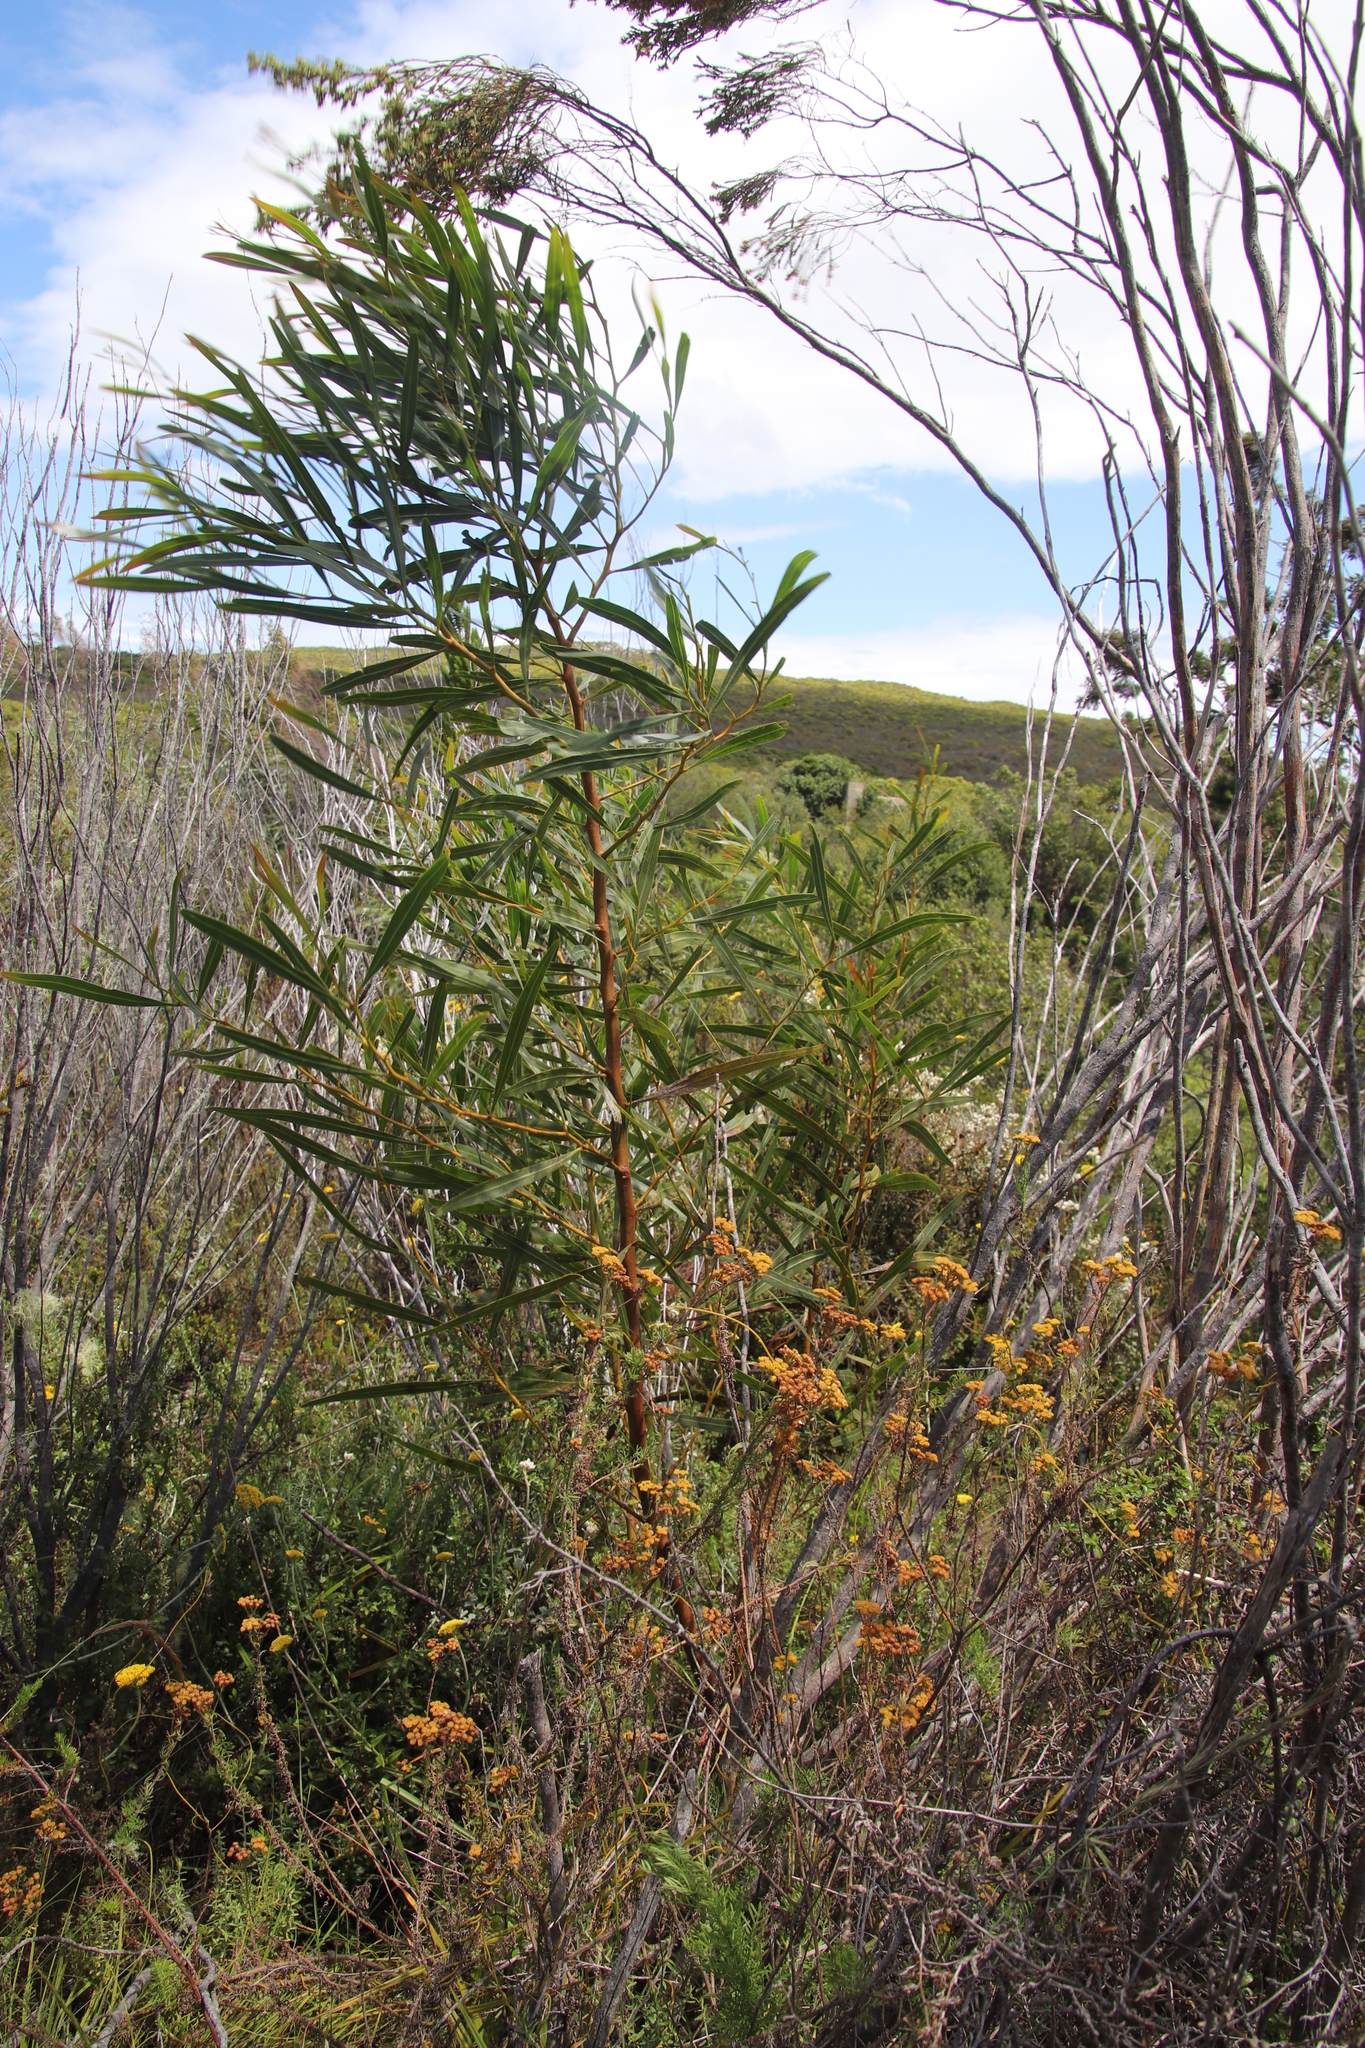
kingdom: Plantae
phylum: Tracheophyta
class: Magnoliopsida
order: Fabales
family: Fabaceae
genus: Acacia
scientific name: Acacia saligna
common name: Orange wattle
